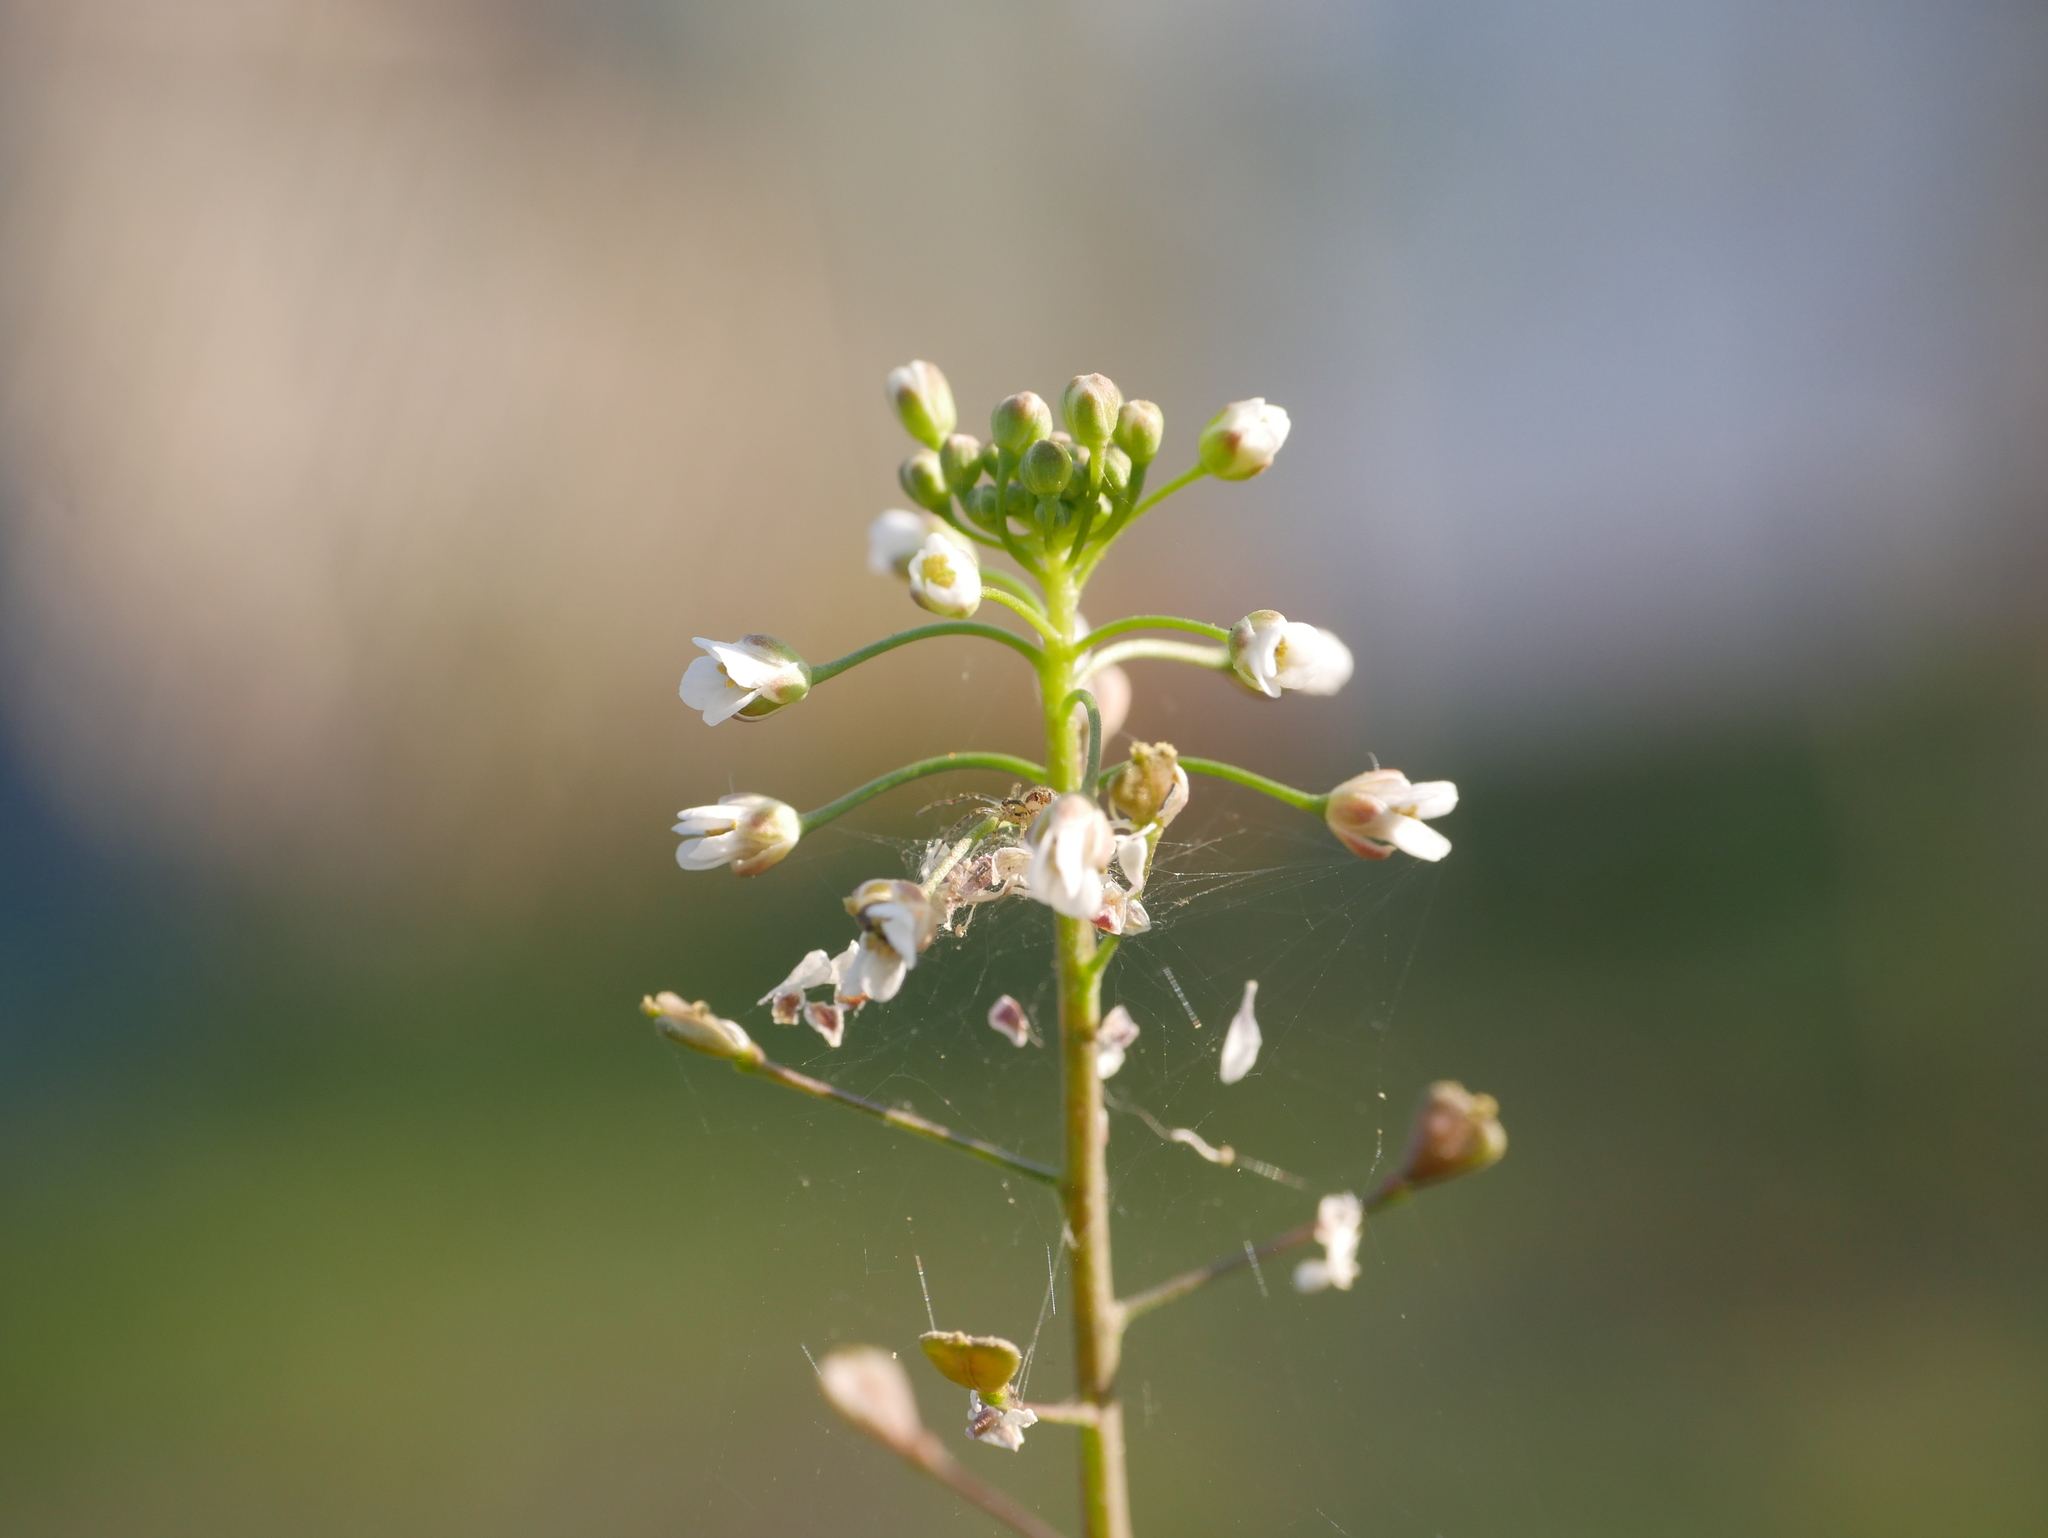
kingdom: Plantae
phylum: Tracheophyta
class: Magnoliopsida
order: Brassicales
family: Brassicaceae
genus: Capsella
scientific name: Capsella bursa-pastoris
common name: Shepherd's purse
